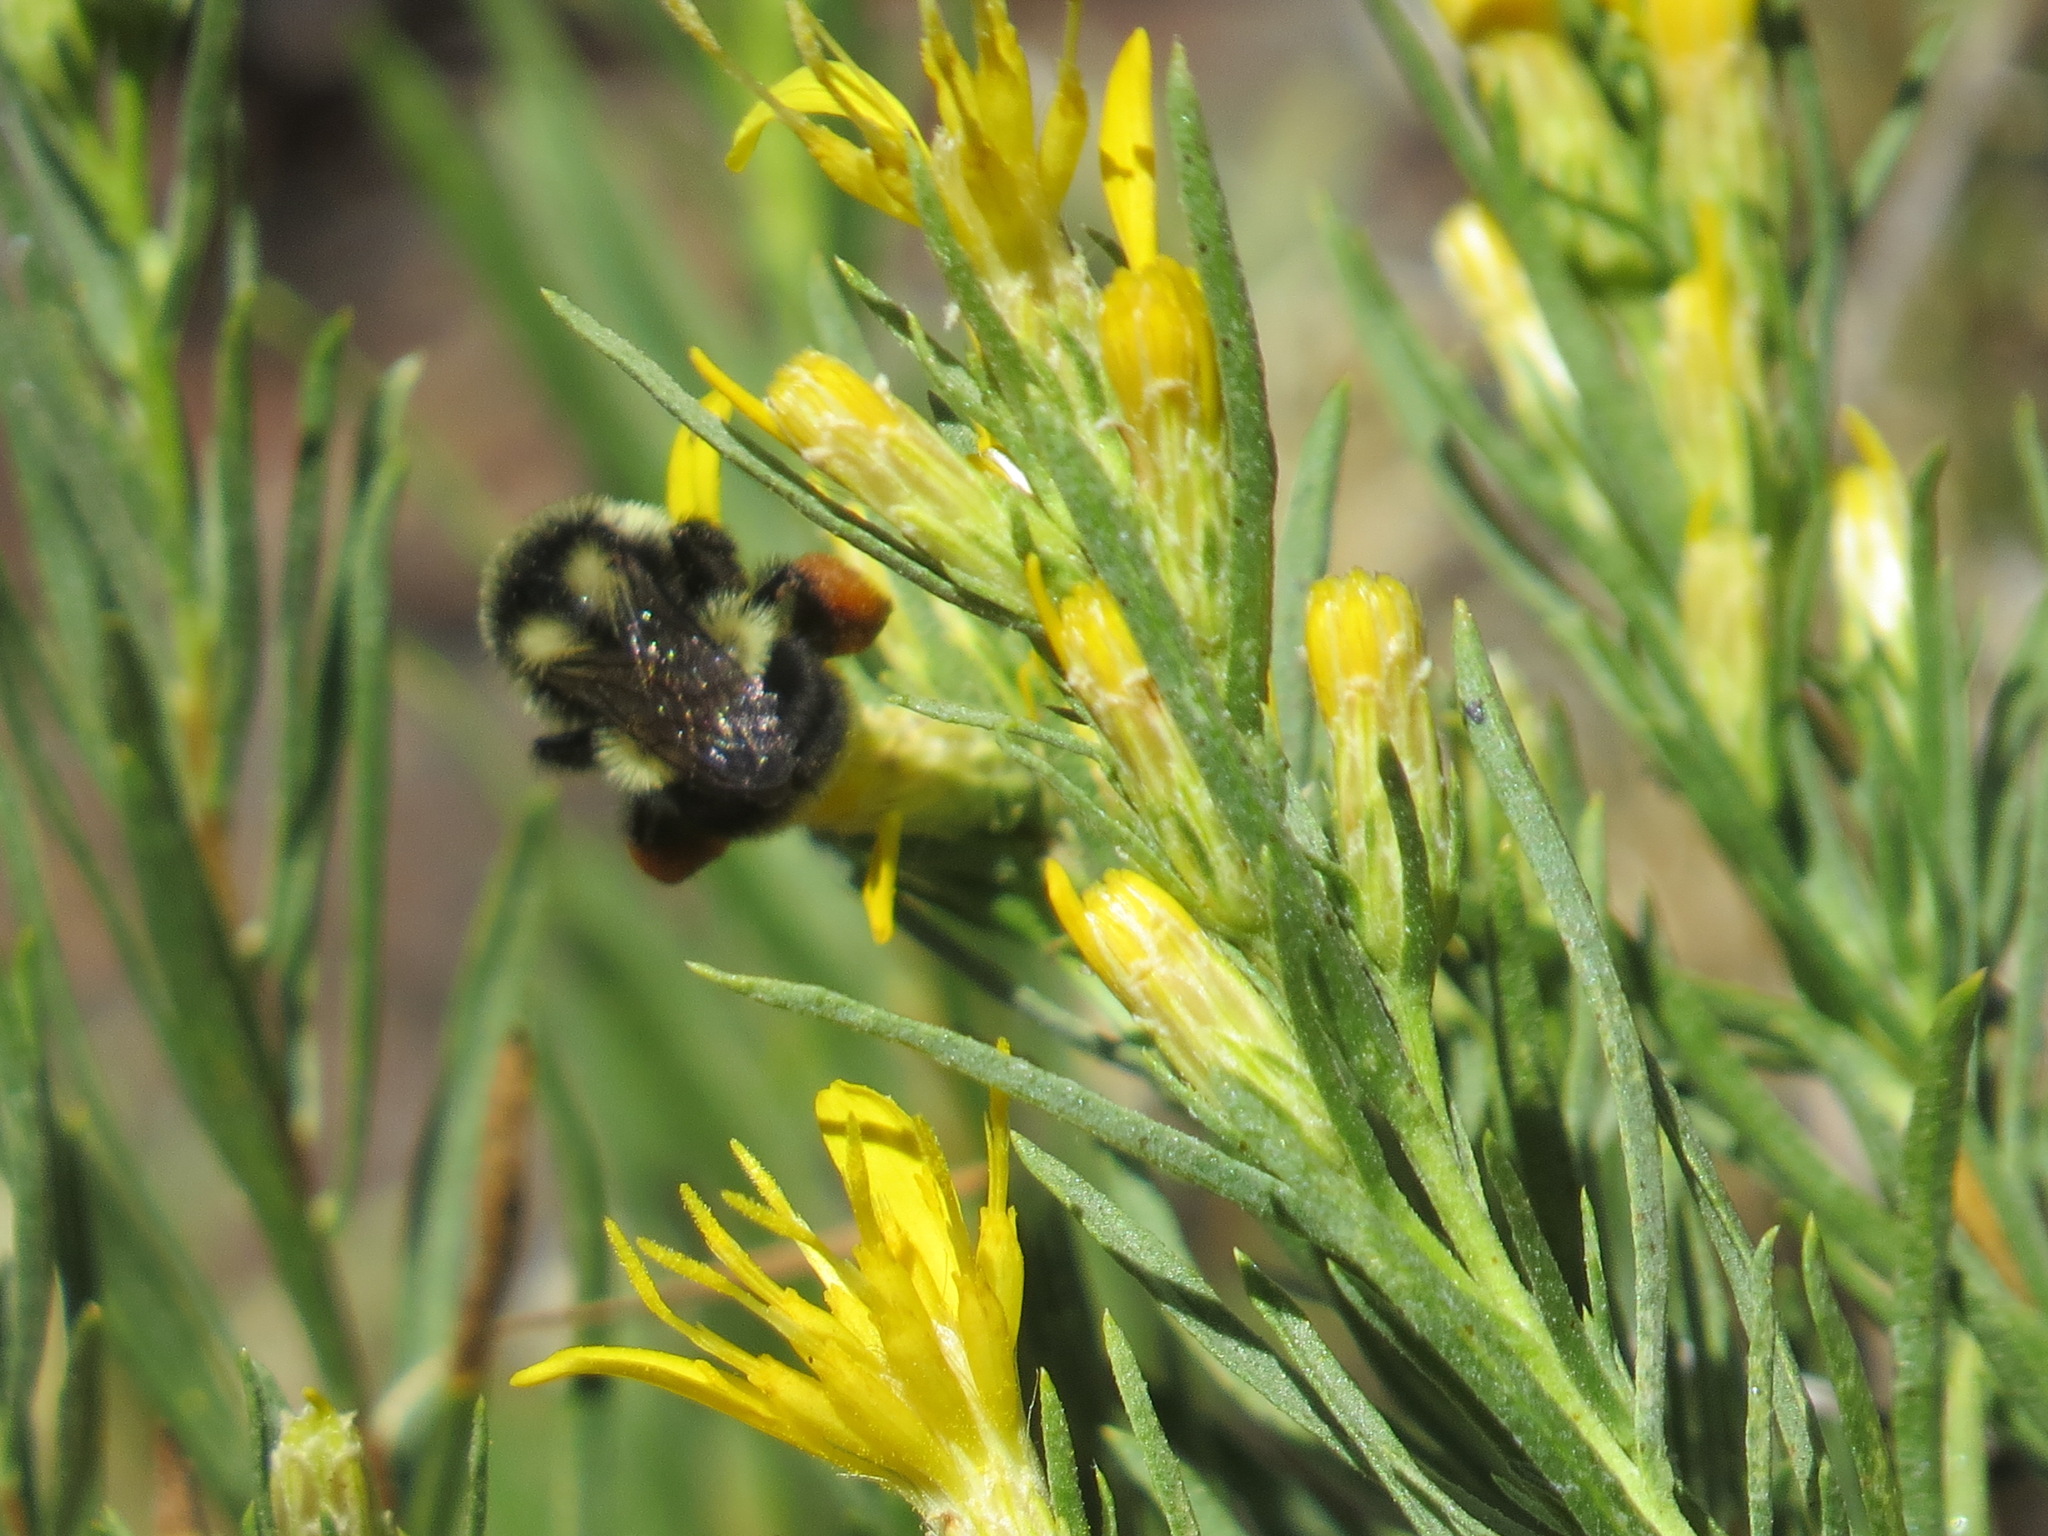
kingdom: Animalia
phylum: Arthropoda
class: Insecta
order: Hymenoptera
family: Apidae
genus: Bombus
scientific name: Bombus vancouverensis
